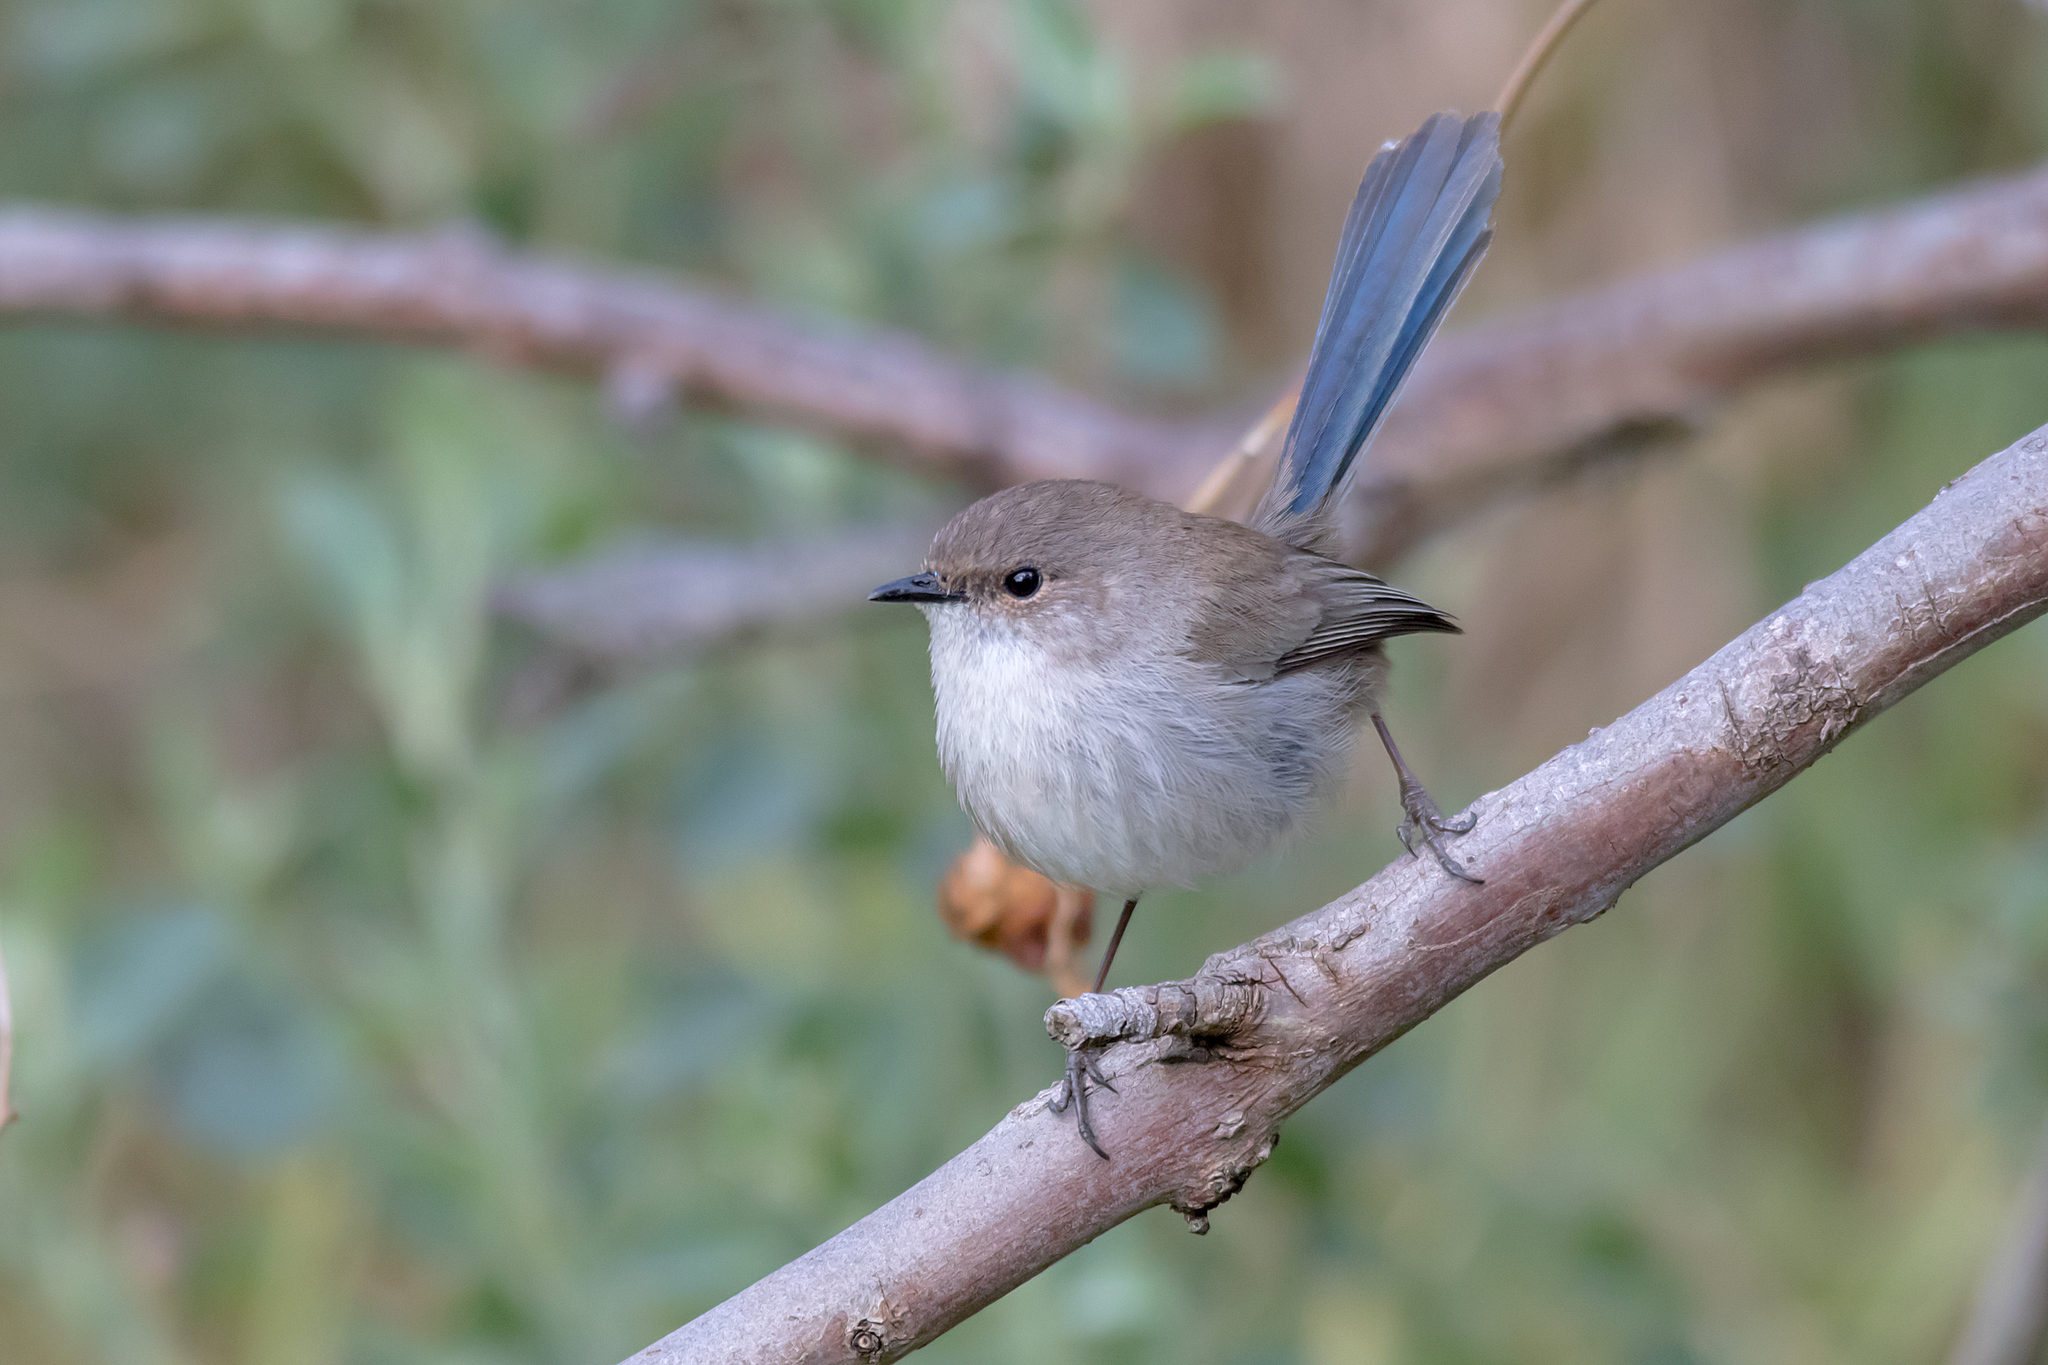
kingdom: Animalia
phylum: Chordata
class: Aves
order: Passeriformes
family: Maluridae
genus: Malurus
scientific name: Malurus cyaneus
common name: Superb fairywren
